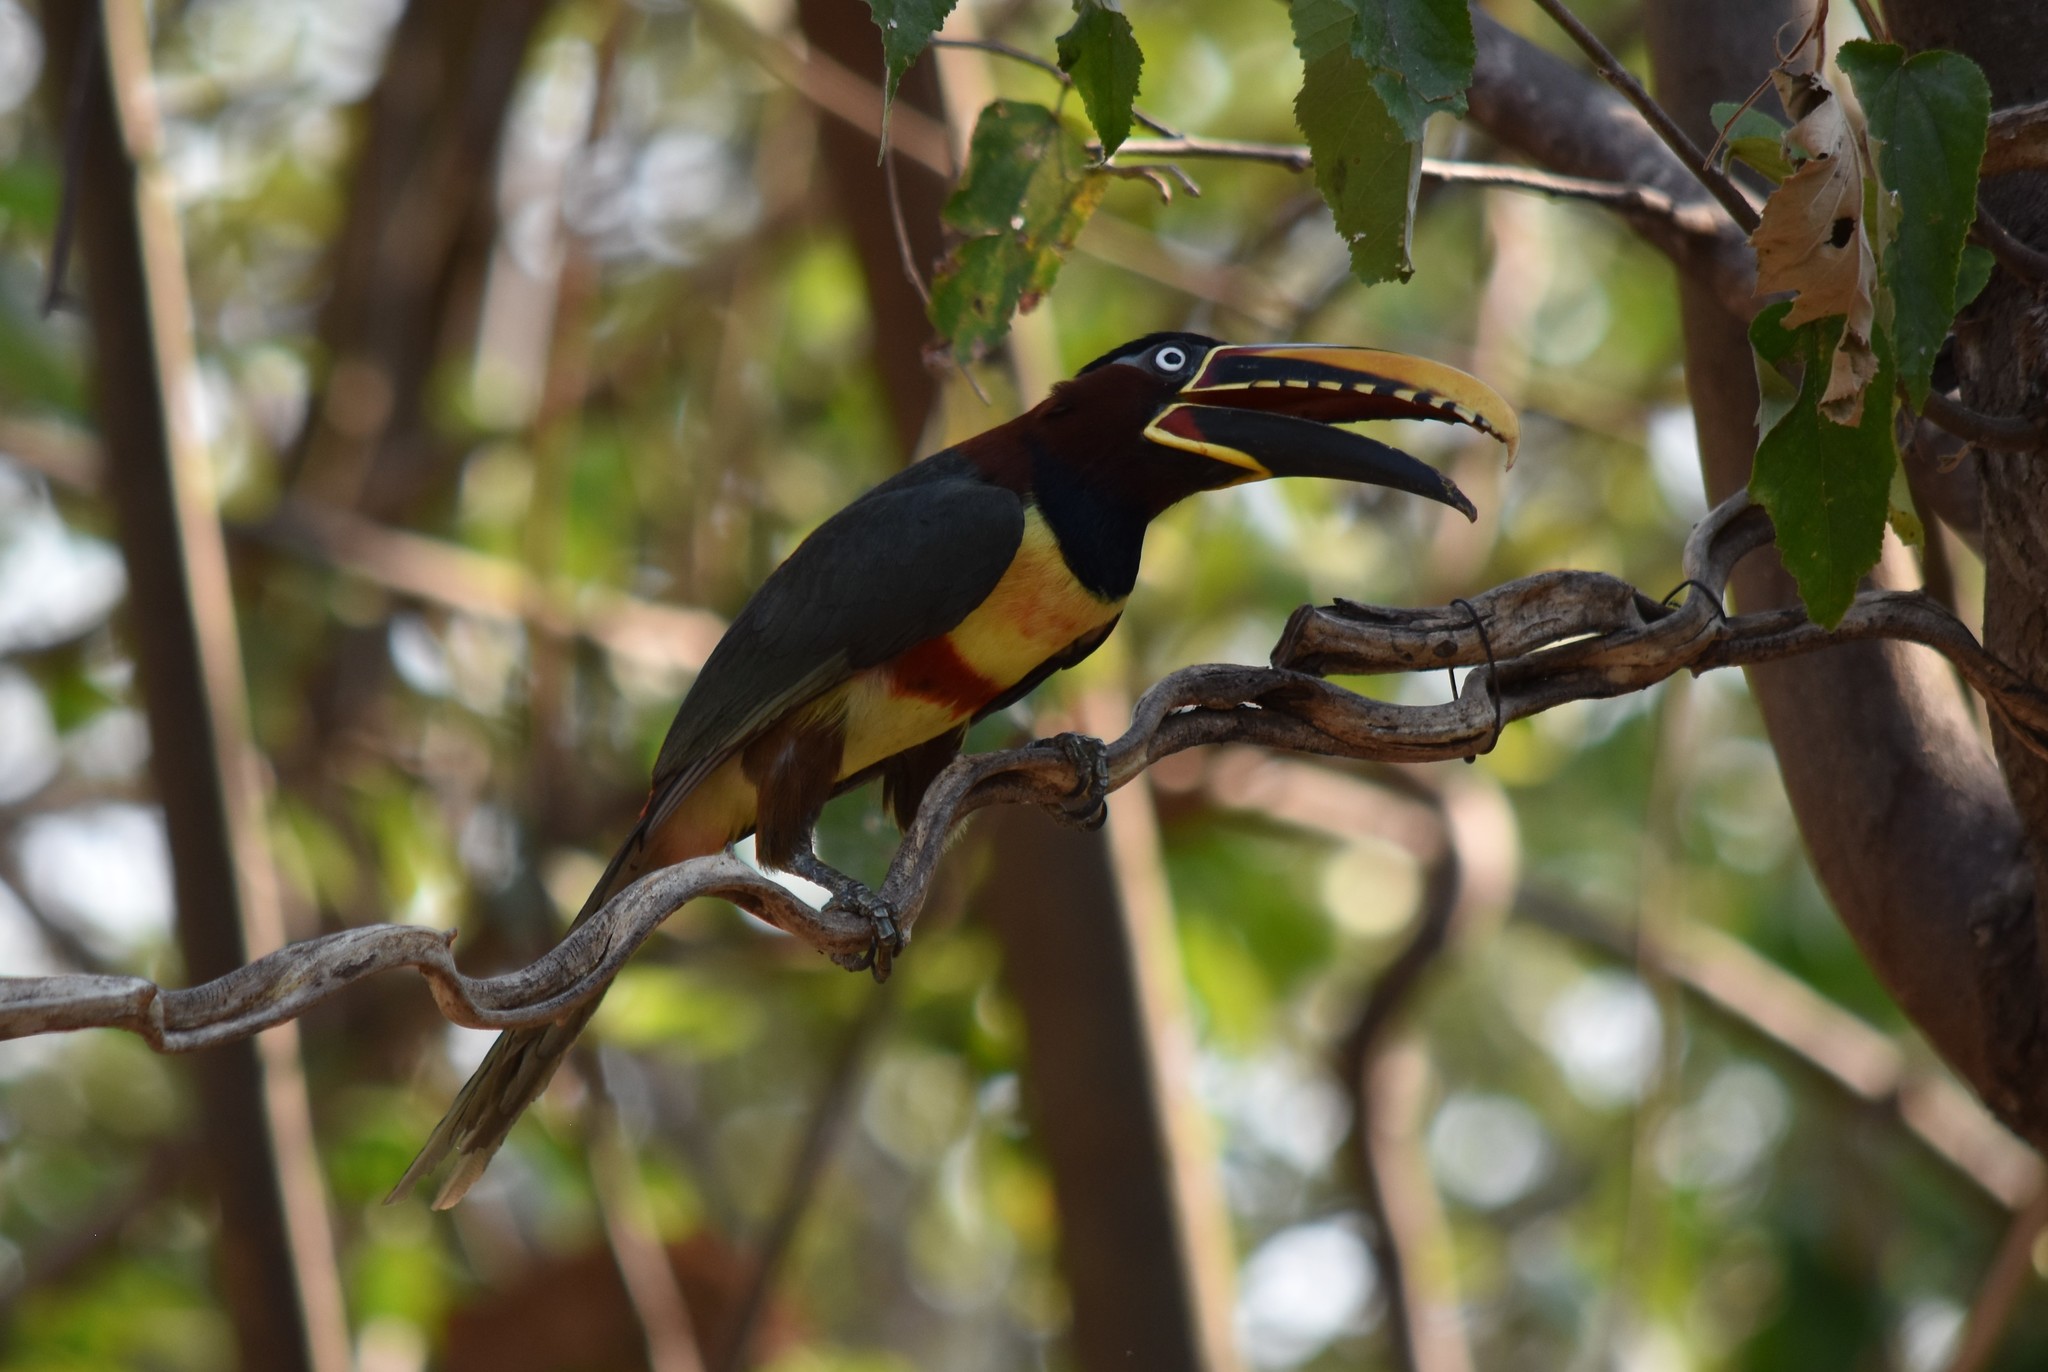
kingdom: Animalia
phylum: Chordata
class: Aves
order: Piciformes
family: Ramphastidae
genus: Pteroglossus
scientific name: Pteroglossus castanotis
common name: Chestnut-eared aracari
